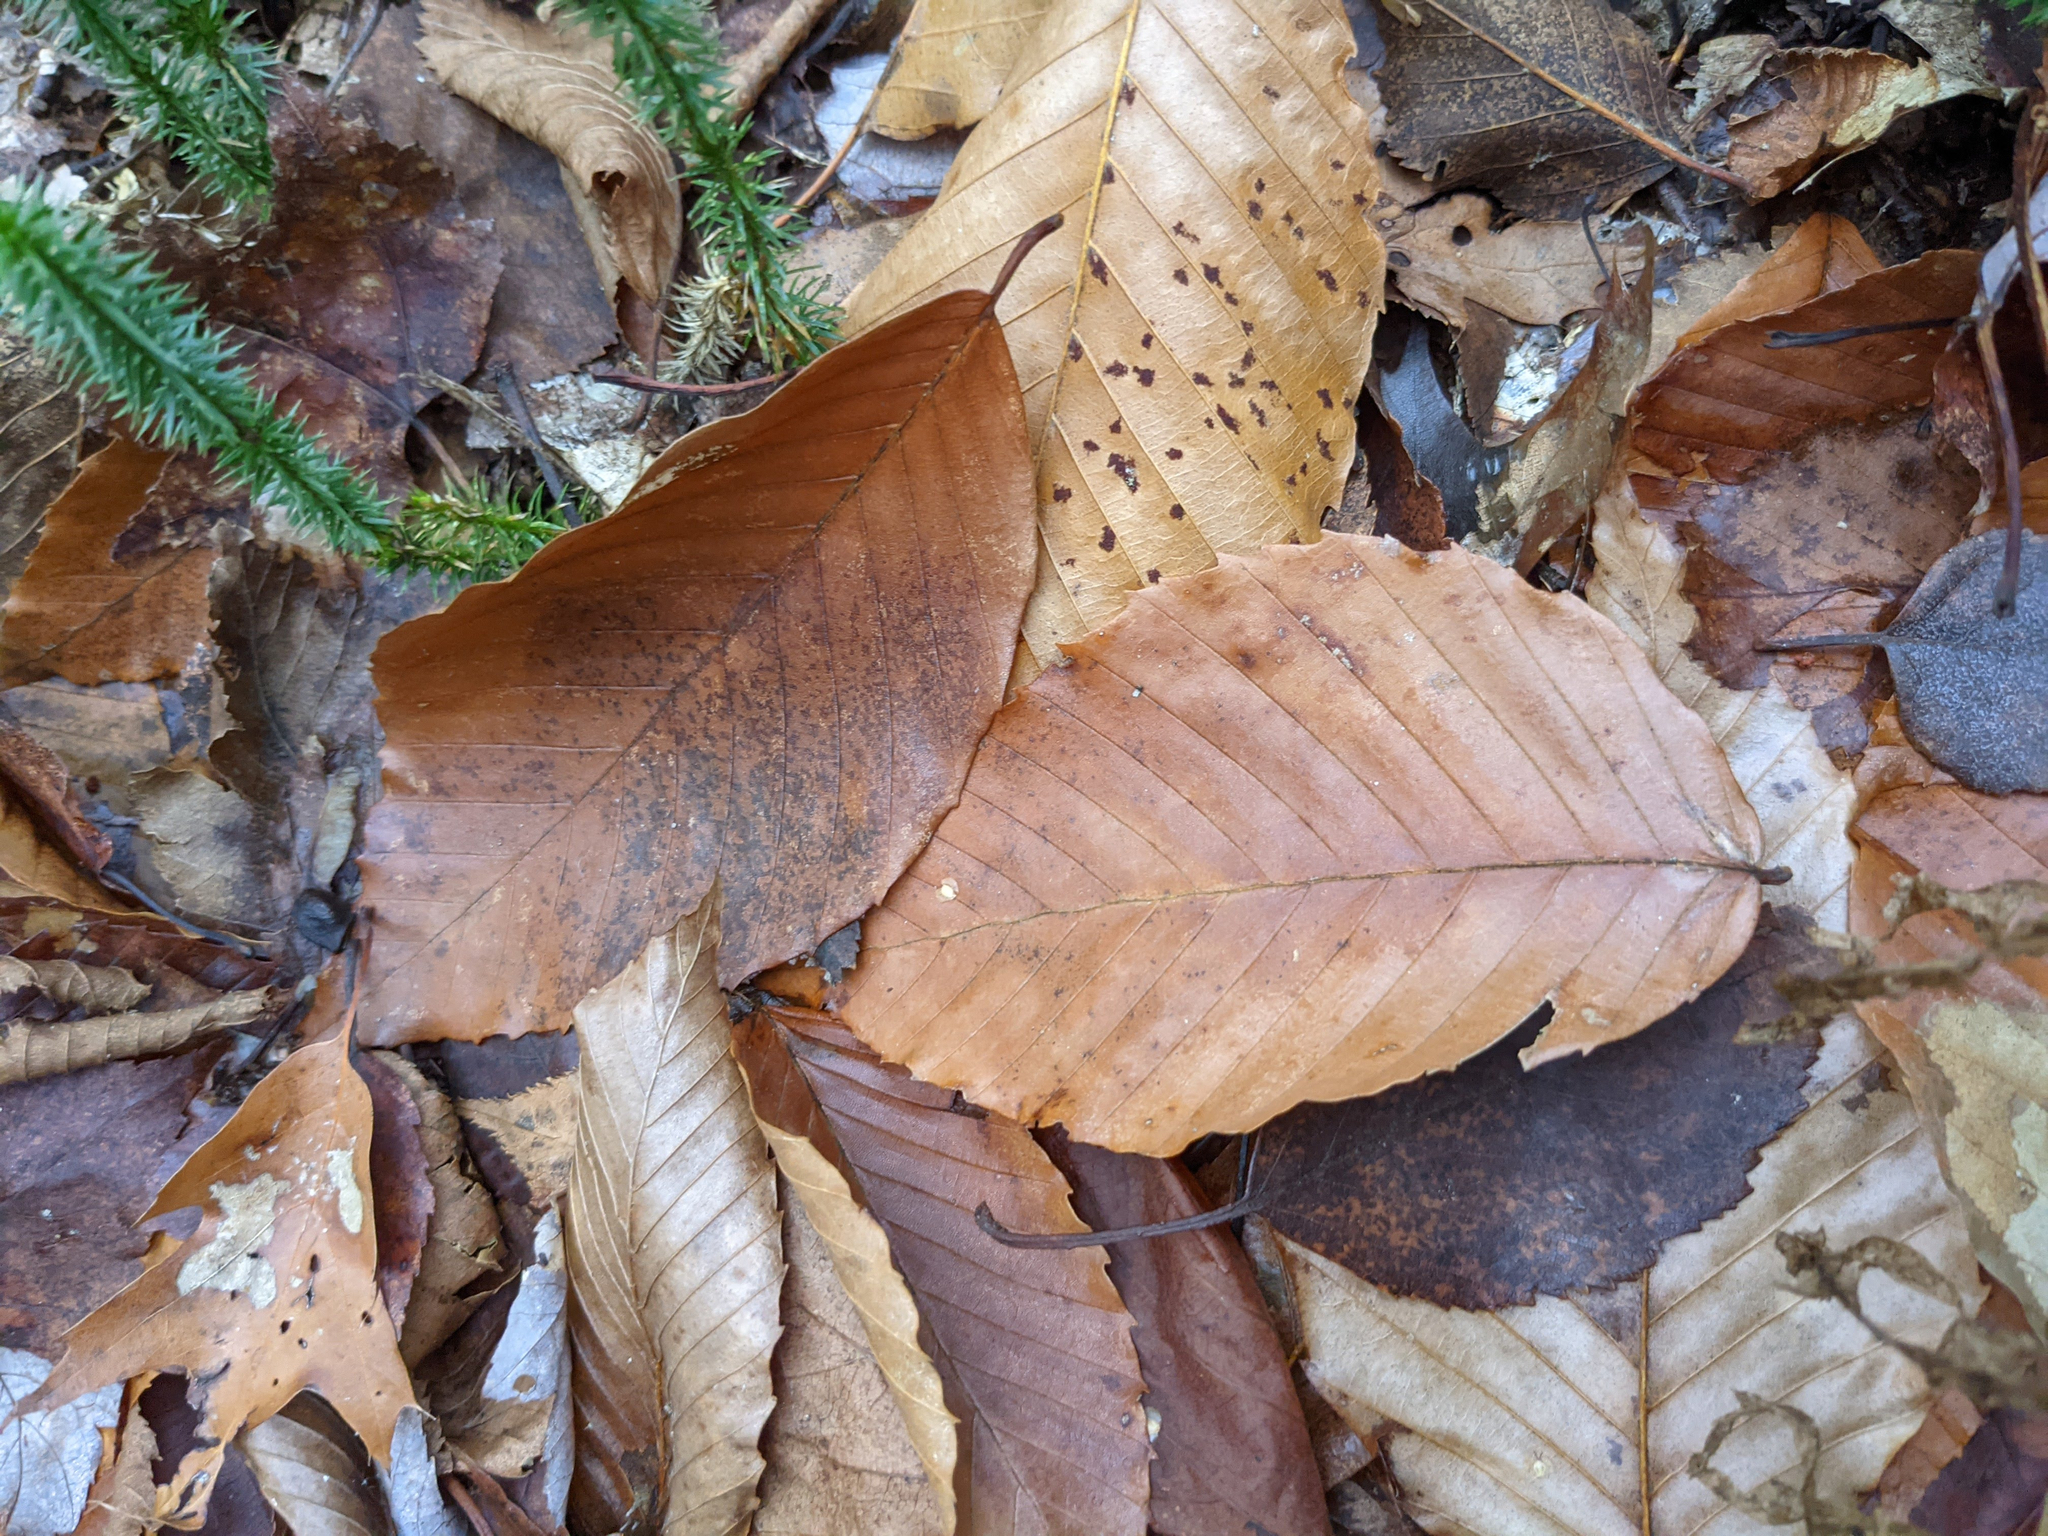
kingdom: Plantae
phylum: Tracheophyta
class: Magnoliopsida
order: Fagales
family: Fagaceae
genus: Fagus
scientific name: Fagus grandifolia
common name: American beech
